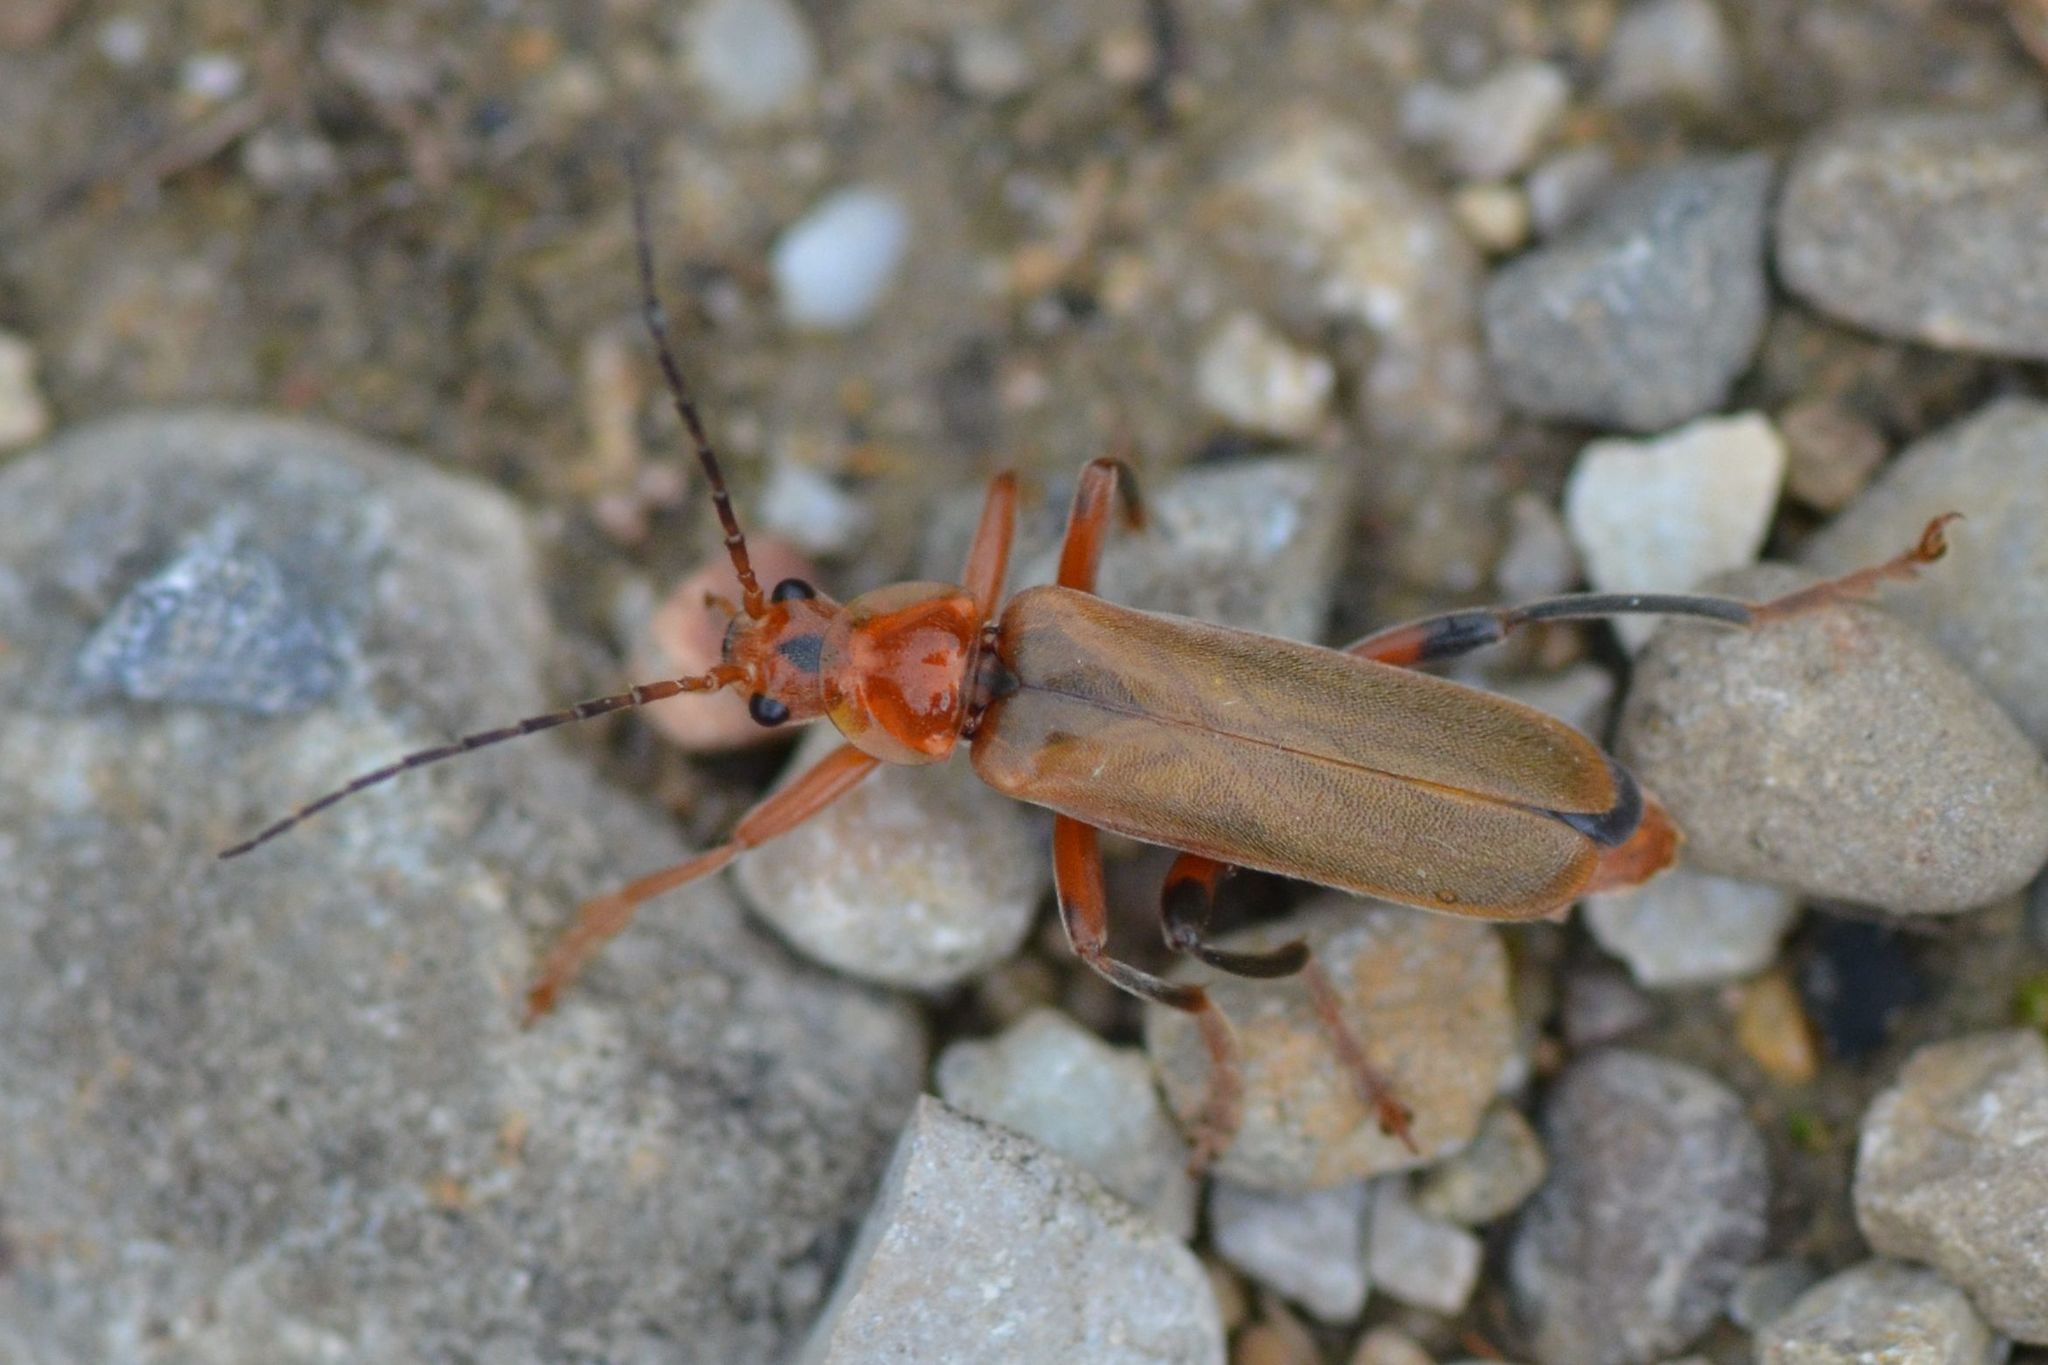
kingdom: Animalia
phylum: Arthropoda
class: Insecta
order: Coleoptera
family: Cantharidae
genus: Cantharis
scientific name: Cantharis livida
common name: Livid soldier beetle
